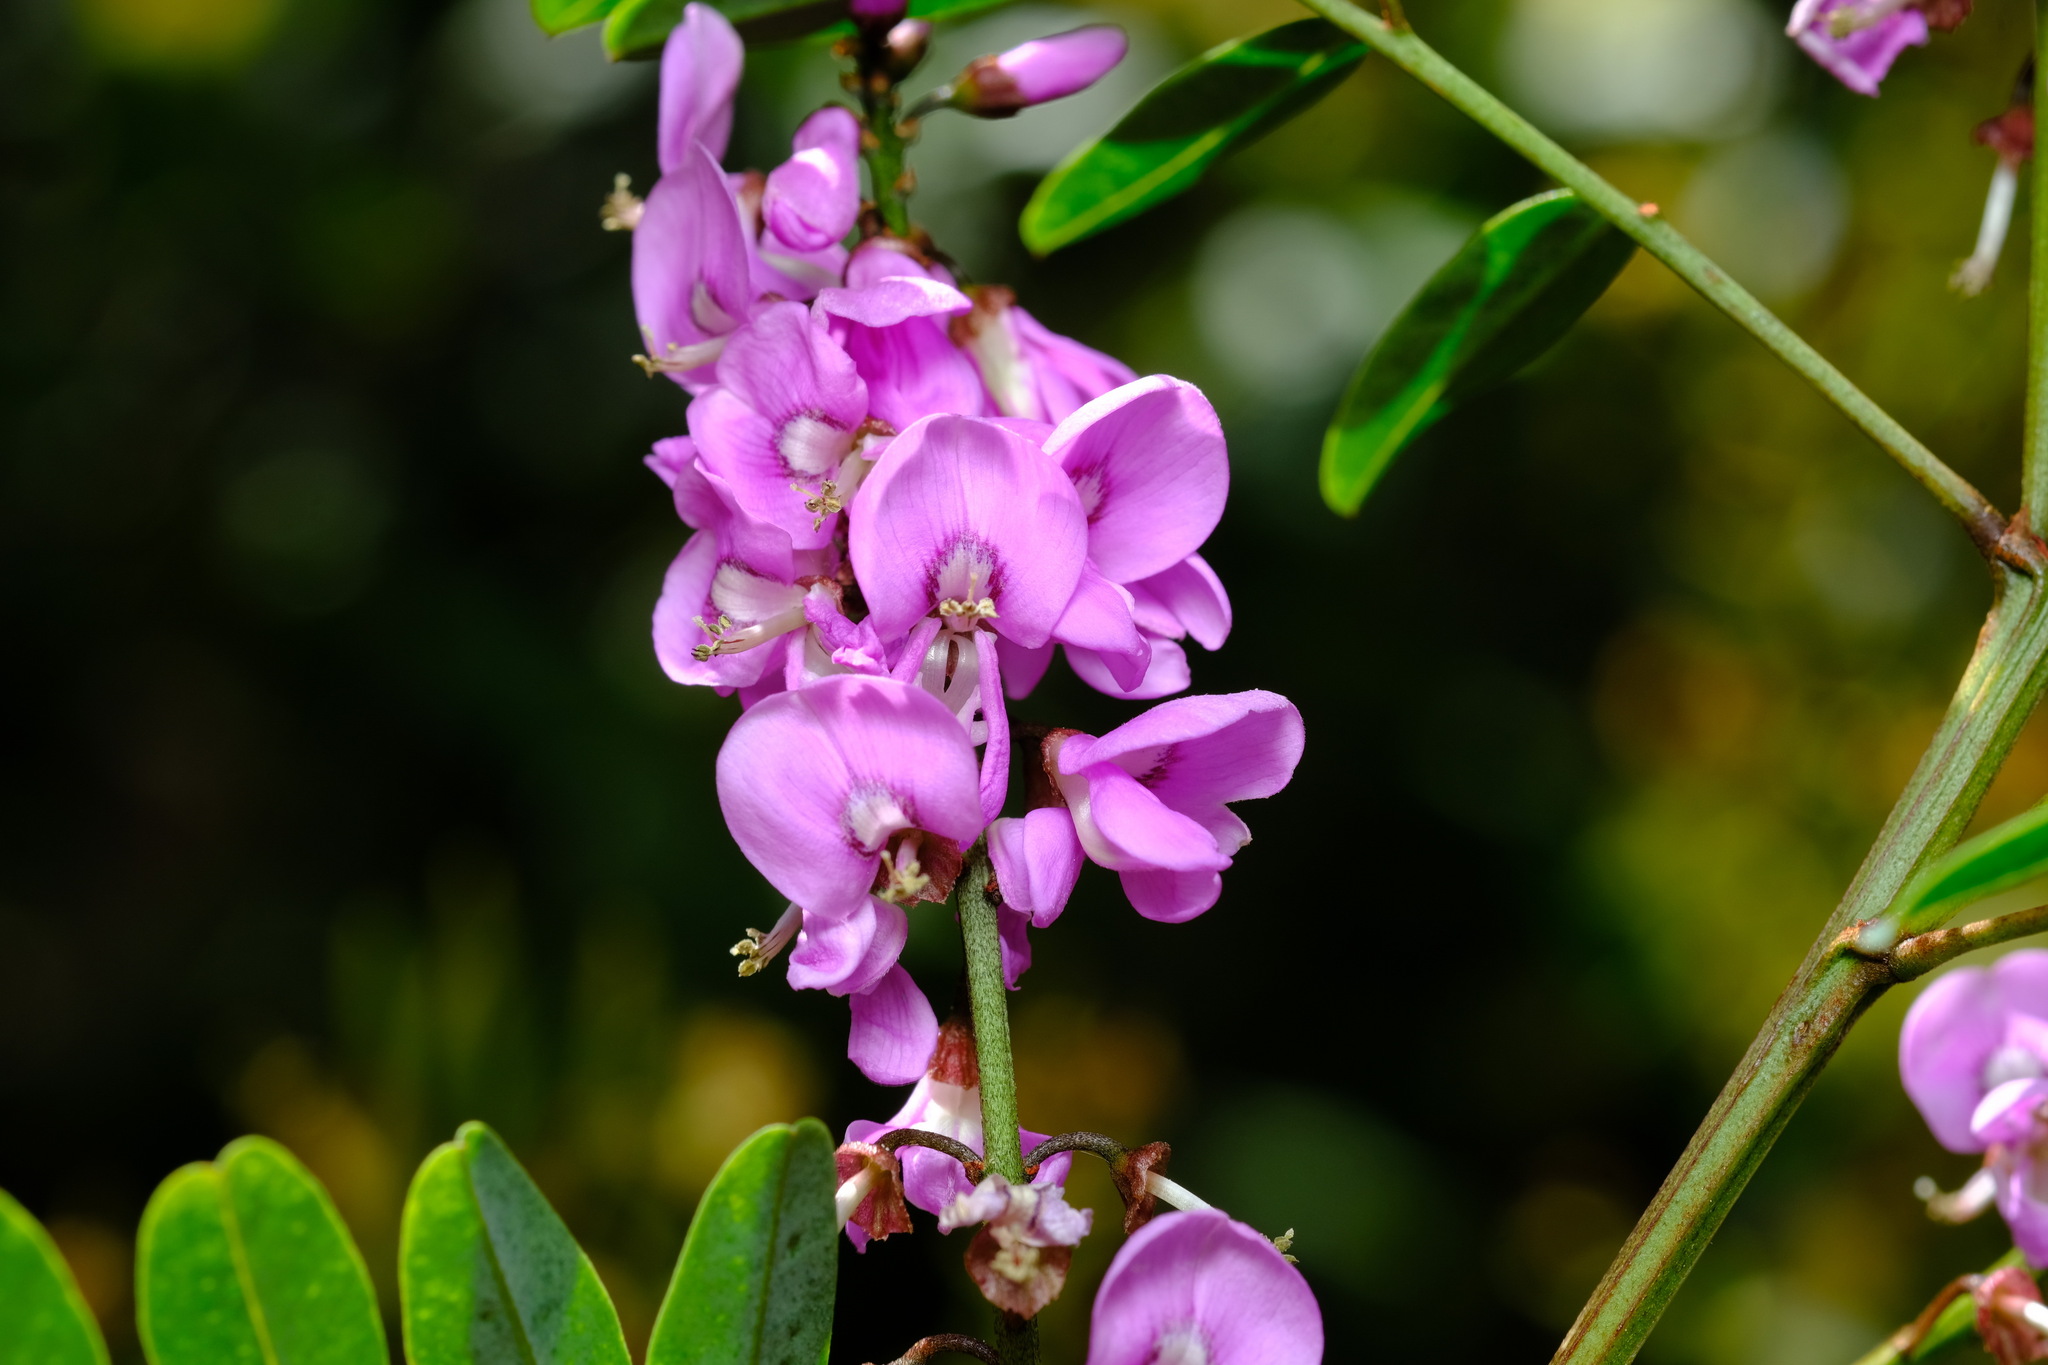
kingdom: Plantae
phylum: Tracheophyta
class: Magnoliopsida
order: Fabales
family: Fabaceae
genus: Indigofera
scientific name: Indigofera australis
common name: Australian indigo
